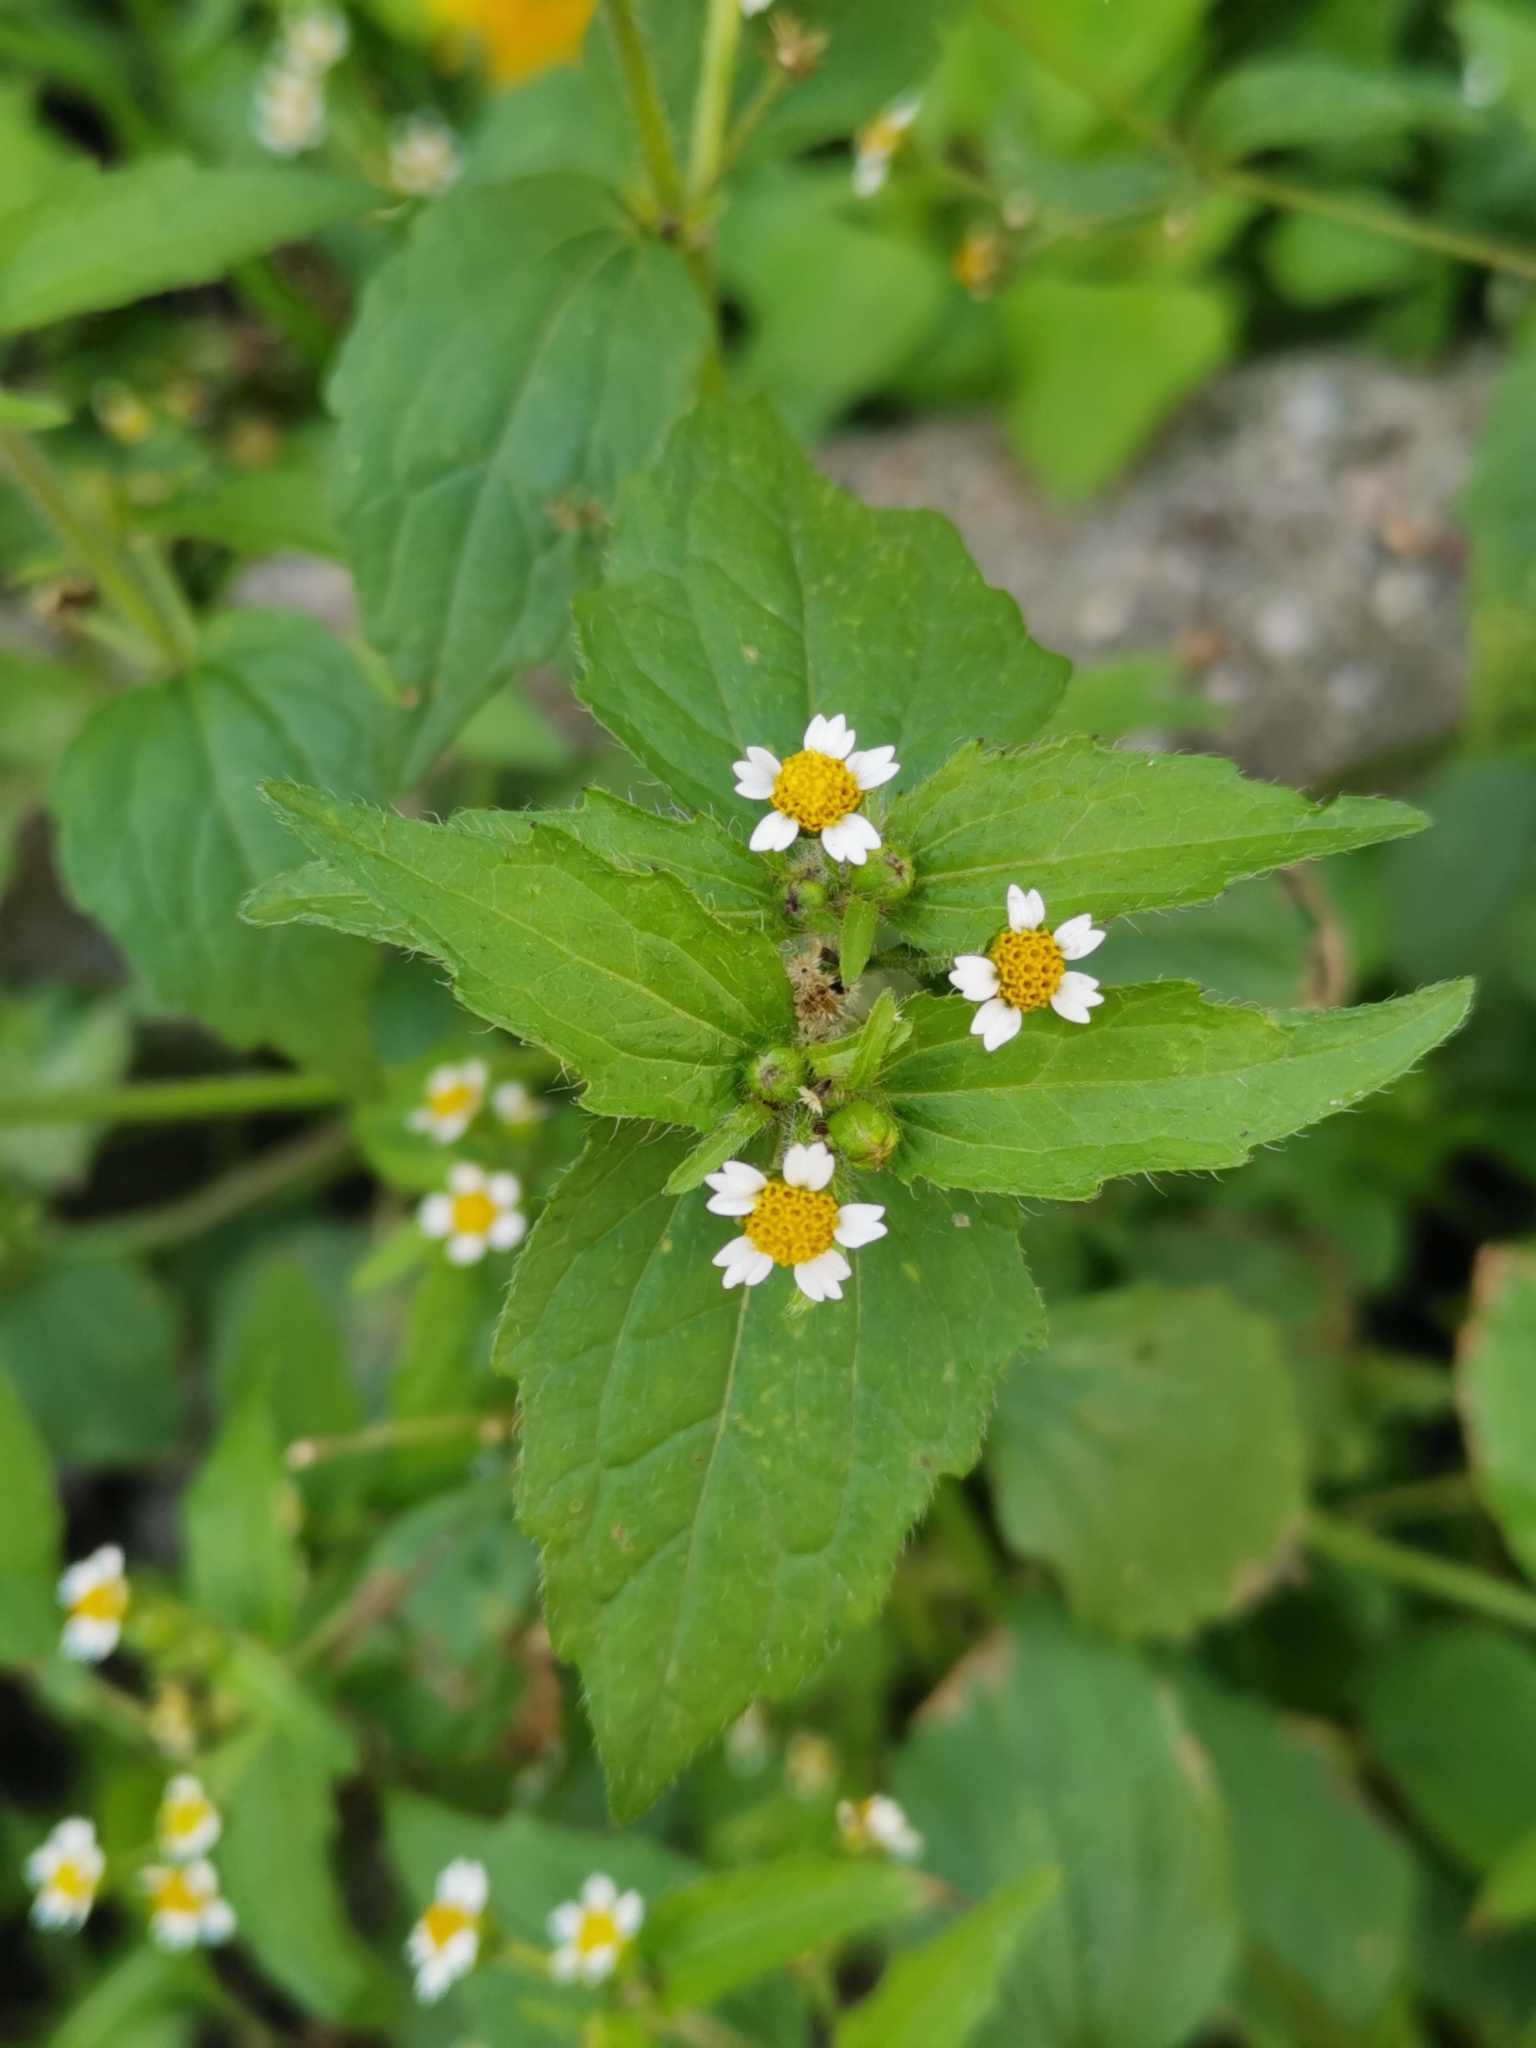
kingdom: Plantae
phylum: Tracheophyta
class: Magnoliopsida
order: Asterales
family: Asteraceae
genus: Galinsoga
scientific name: Galinsoga quadriradiata
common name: Shaggy soldier
